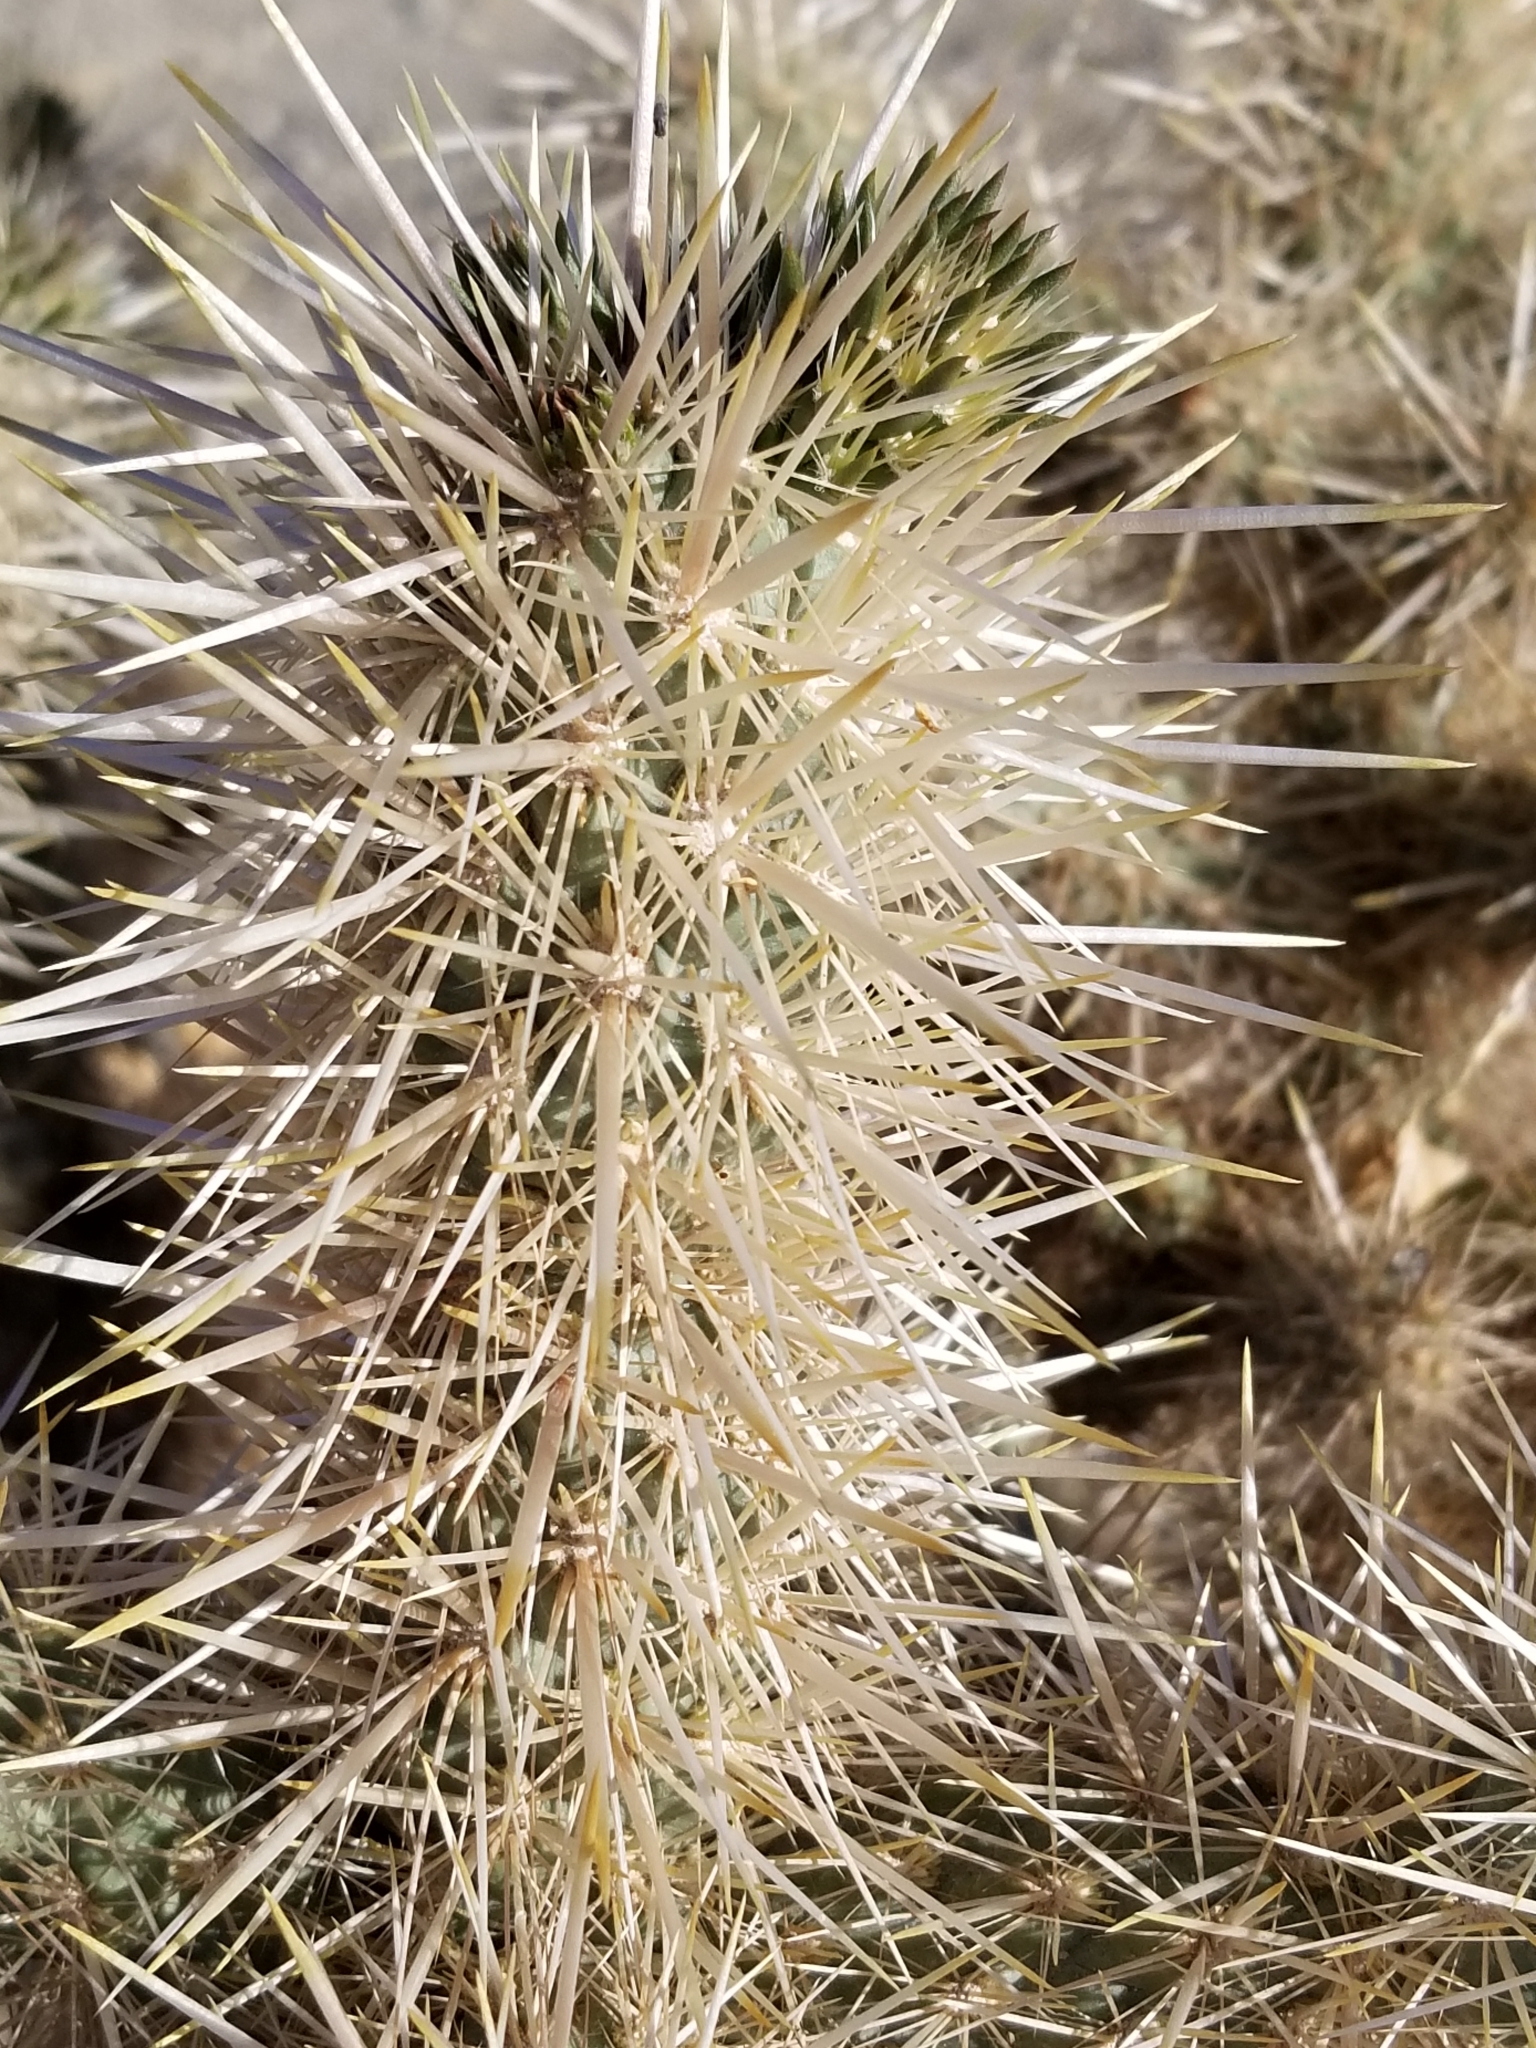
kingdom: Plantae
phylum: Tracheophyta
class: Magnoliopsida
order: Caryophyllales
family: Cactaceae
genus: Cylindropuntia
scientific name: Cylindropuntia echinocarpa
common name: Ground cholla
